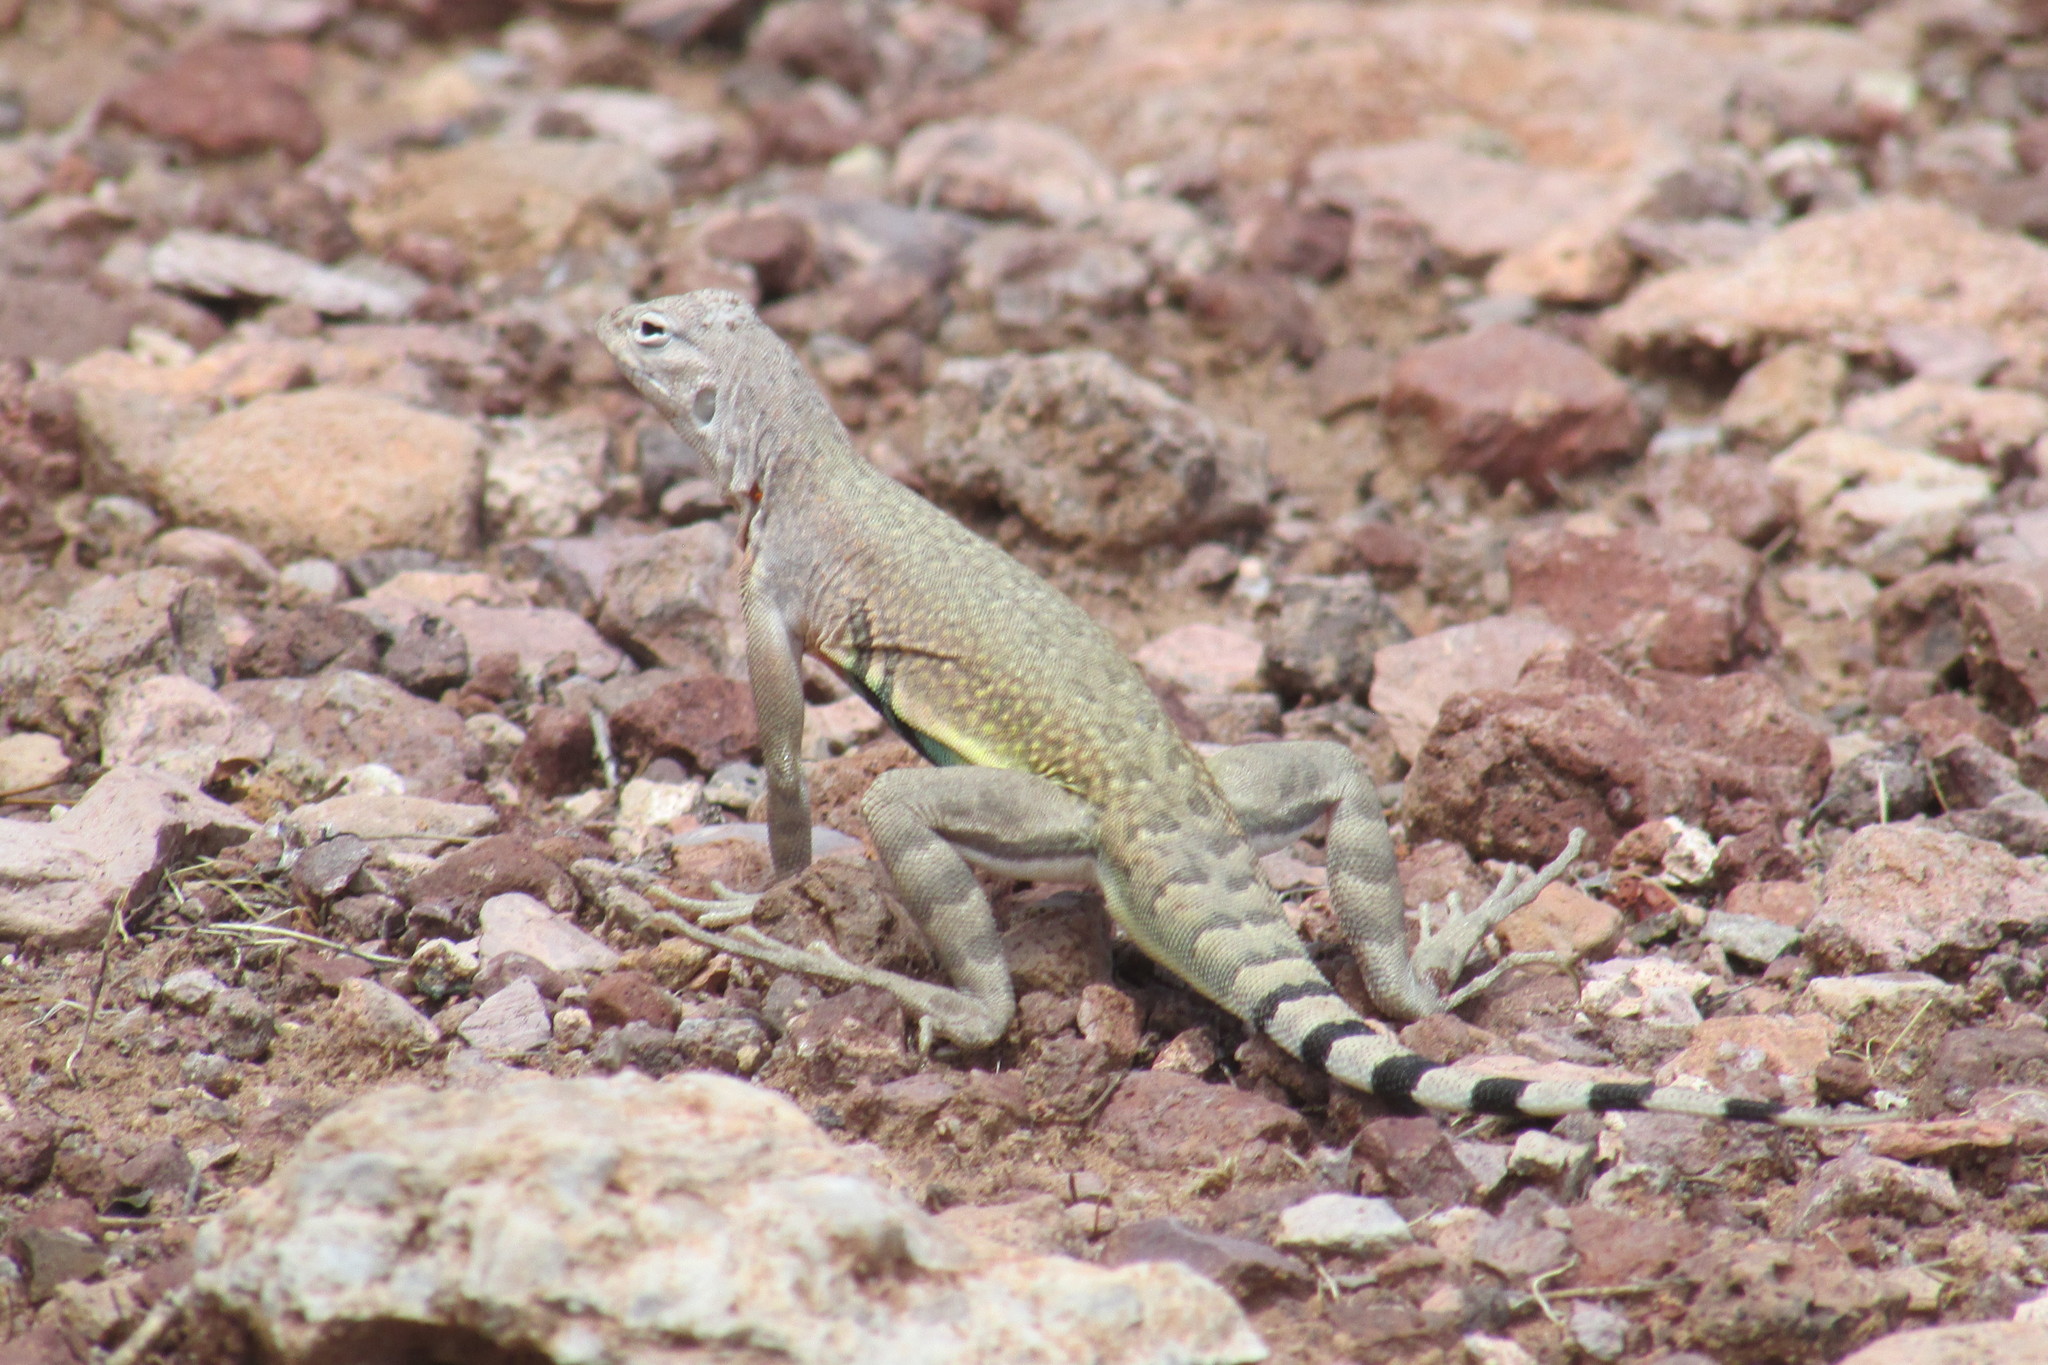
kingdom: Animalia
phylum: Chordata
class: Squamata
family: Phrynosomatidae
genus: Callisaurus
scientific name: Callisaurus draconoides
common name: Zebra-tailed lizard
